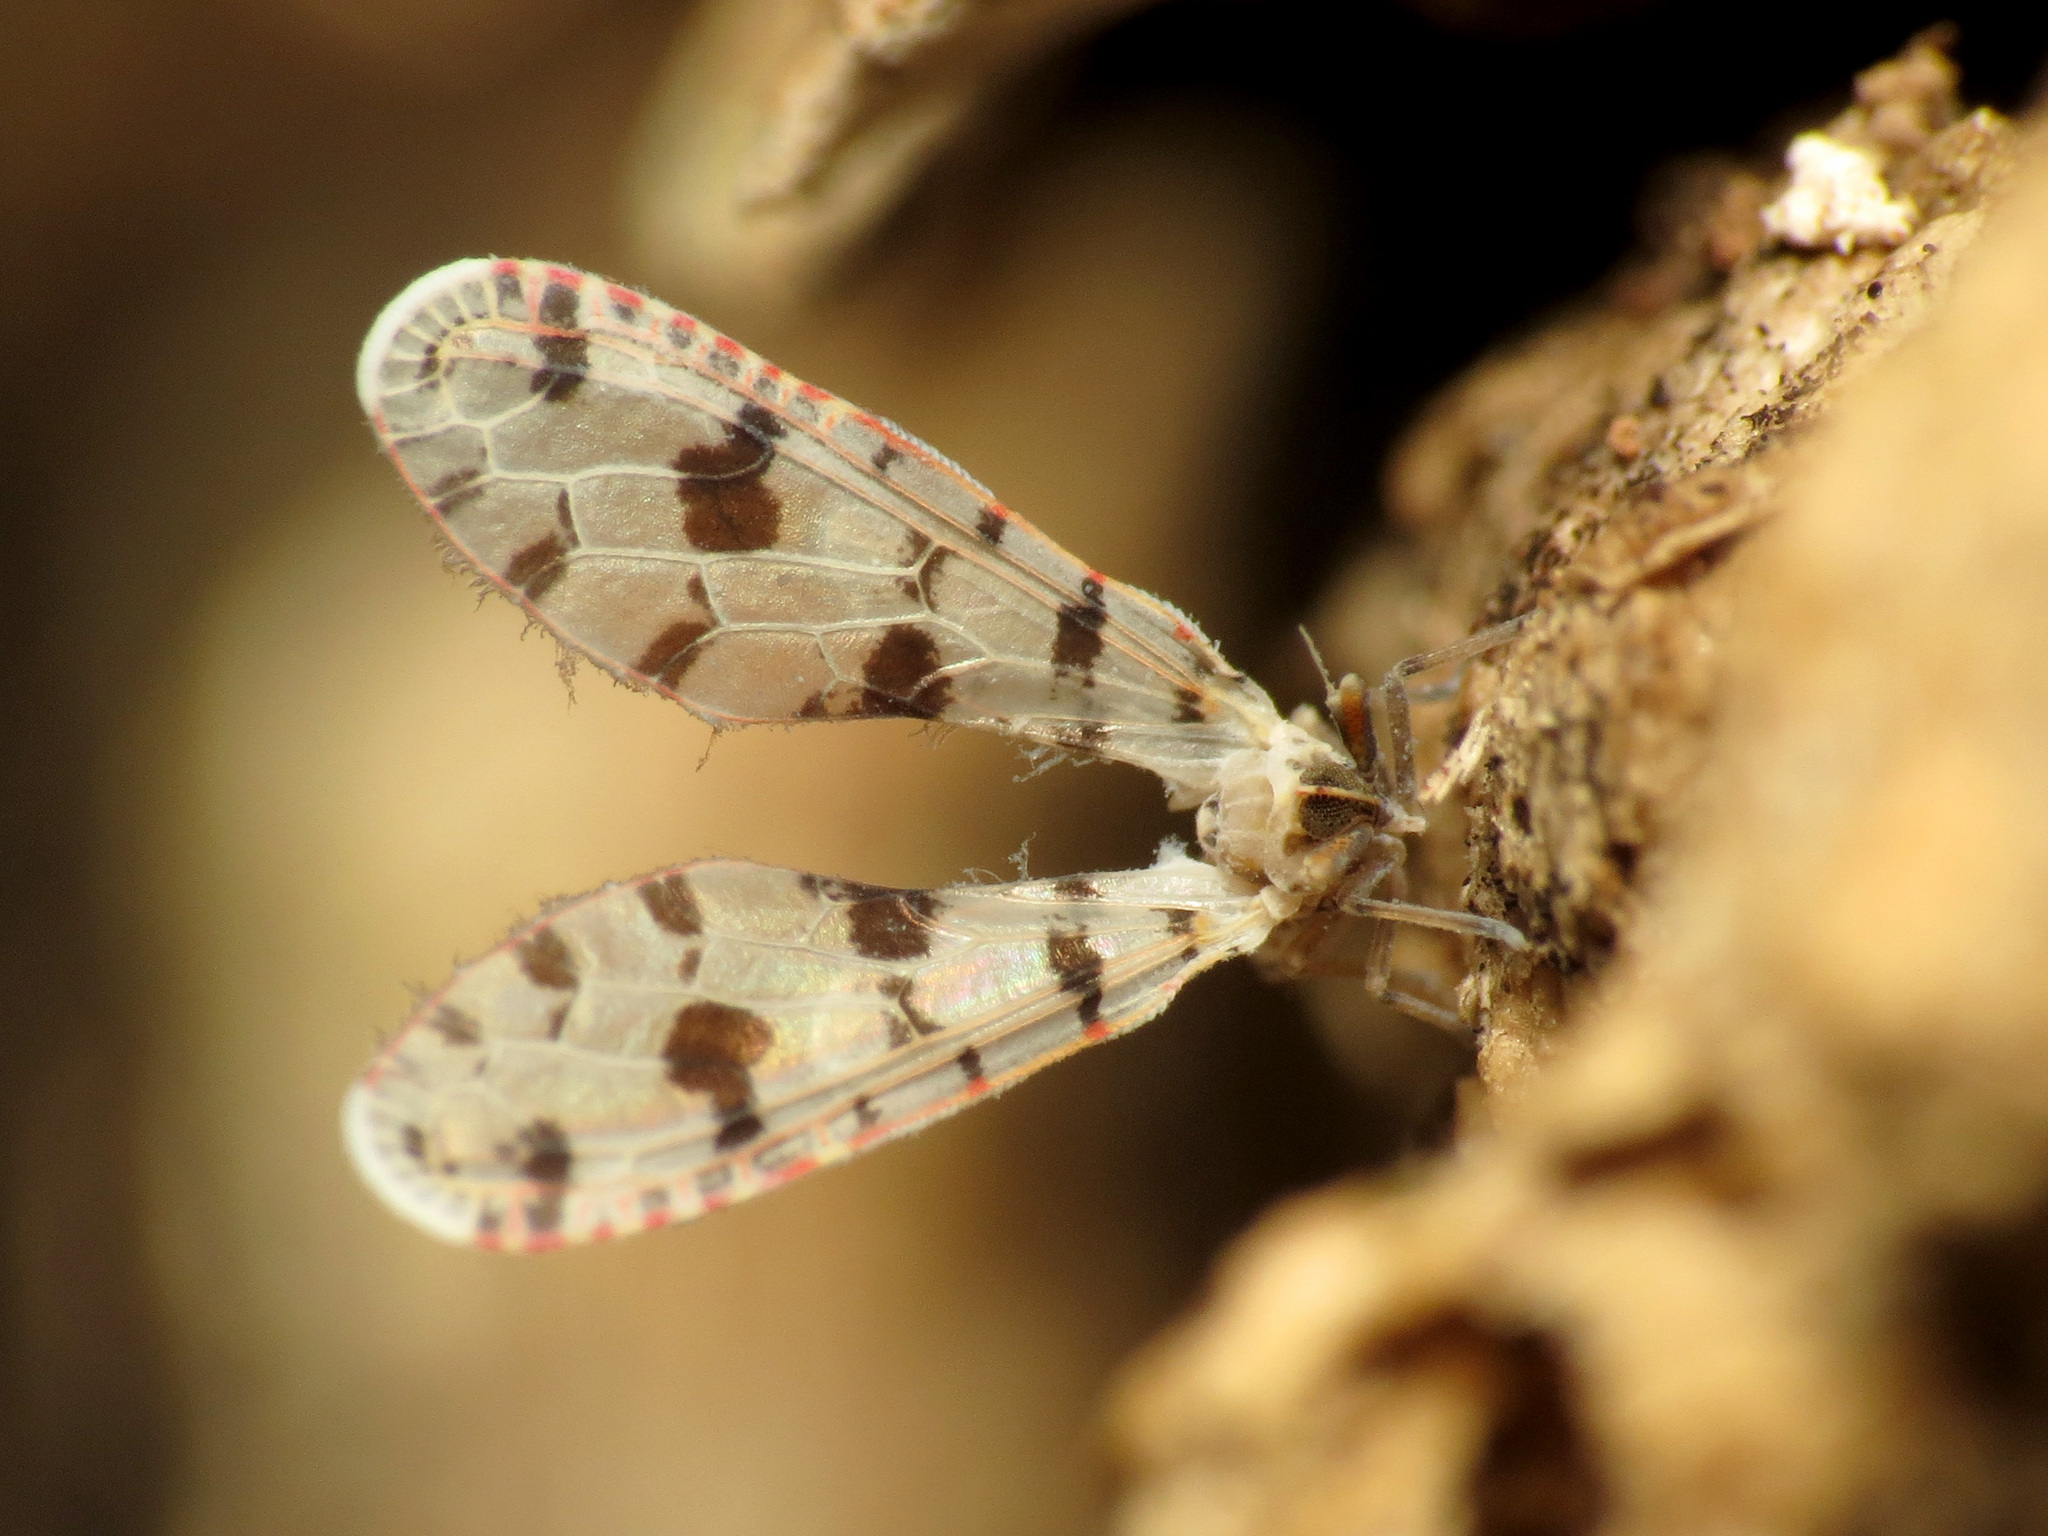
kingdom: Animalia
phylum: Arthropoda
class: Insecta
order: Hemiptera
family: Derbidae
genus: Sikaiana
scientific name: Sikaiana harti
